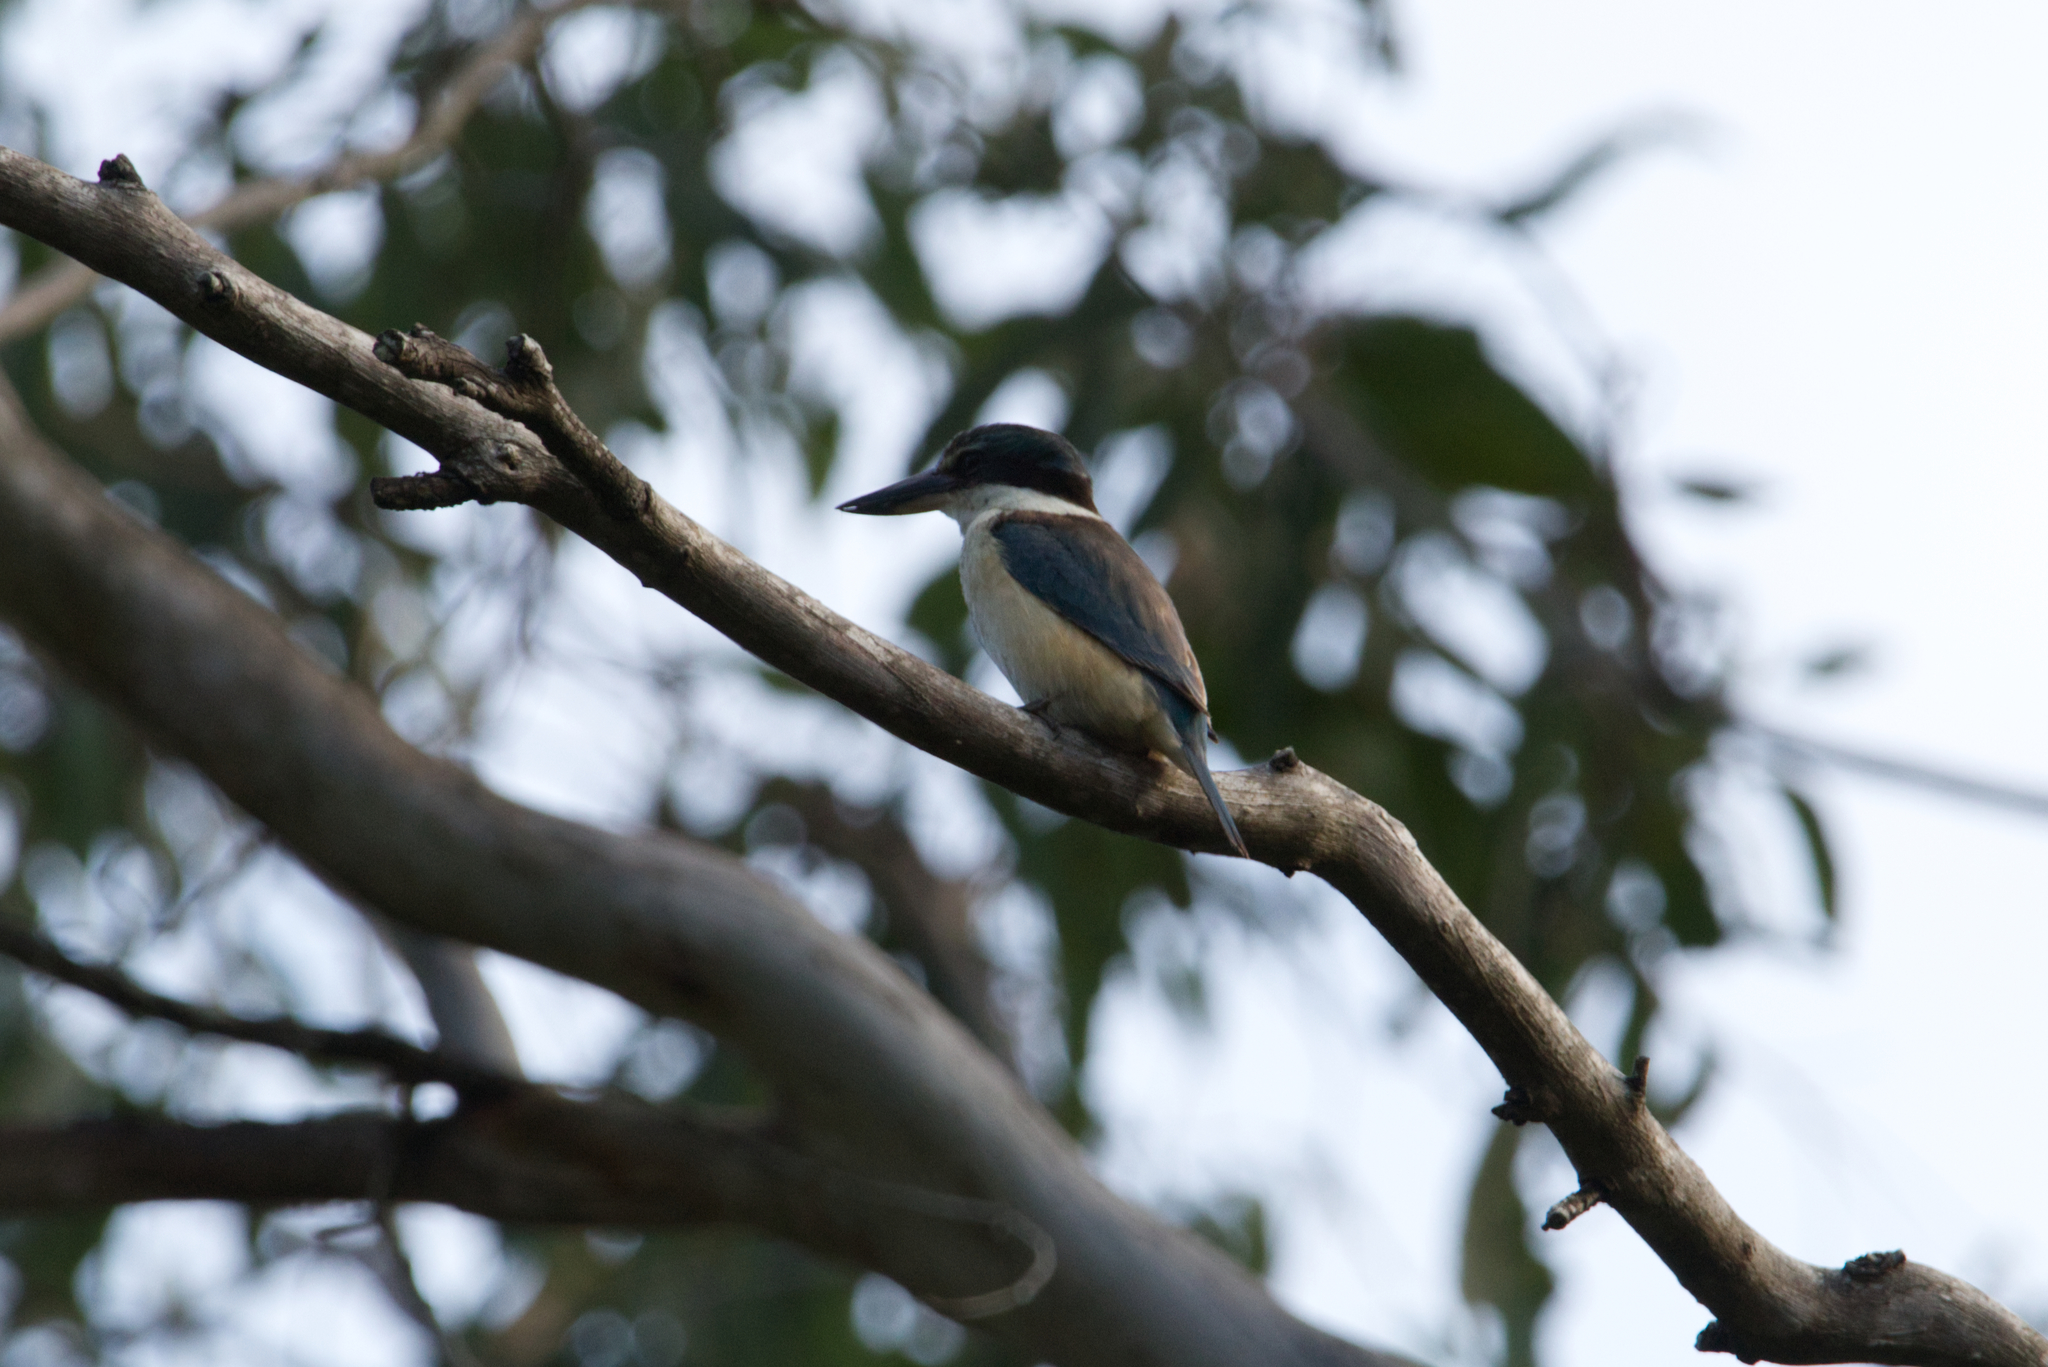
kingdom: Animalia
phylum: Chordata
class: Aves
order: Coraciiformes
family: Alcedinidae
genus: Todiramphus
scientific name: Todiramphus sanctus
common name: Sacred kingfisher
